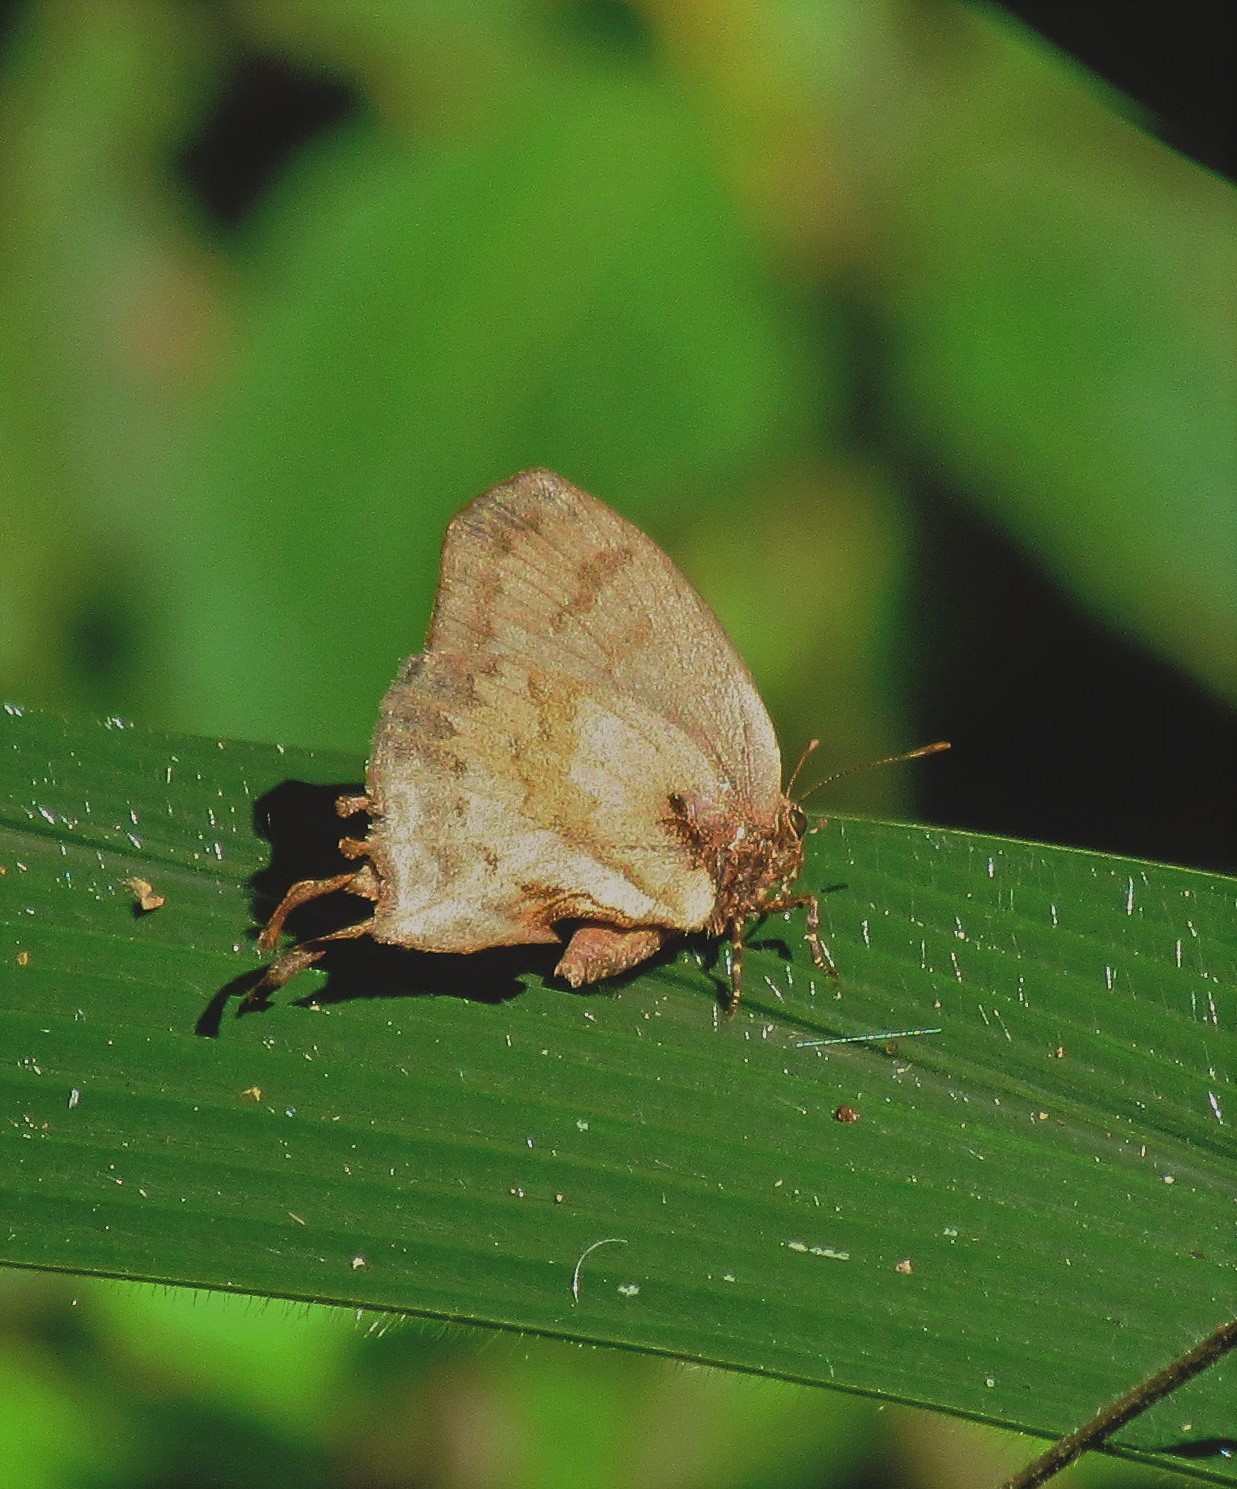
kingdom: Animalia
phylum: Arthropoda
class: Insecta
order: Lepidoptera
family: Lycaenidae
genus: Evenus
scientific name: Evenus
